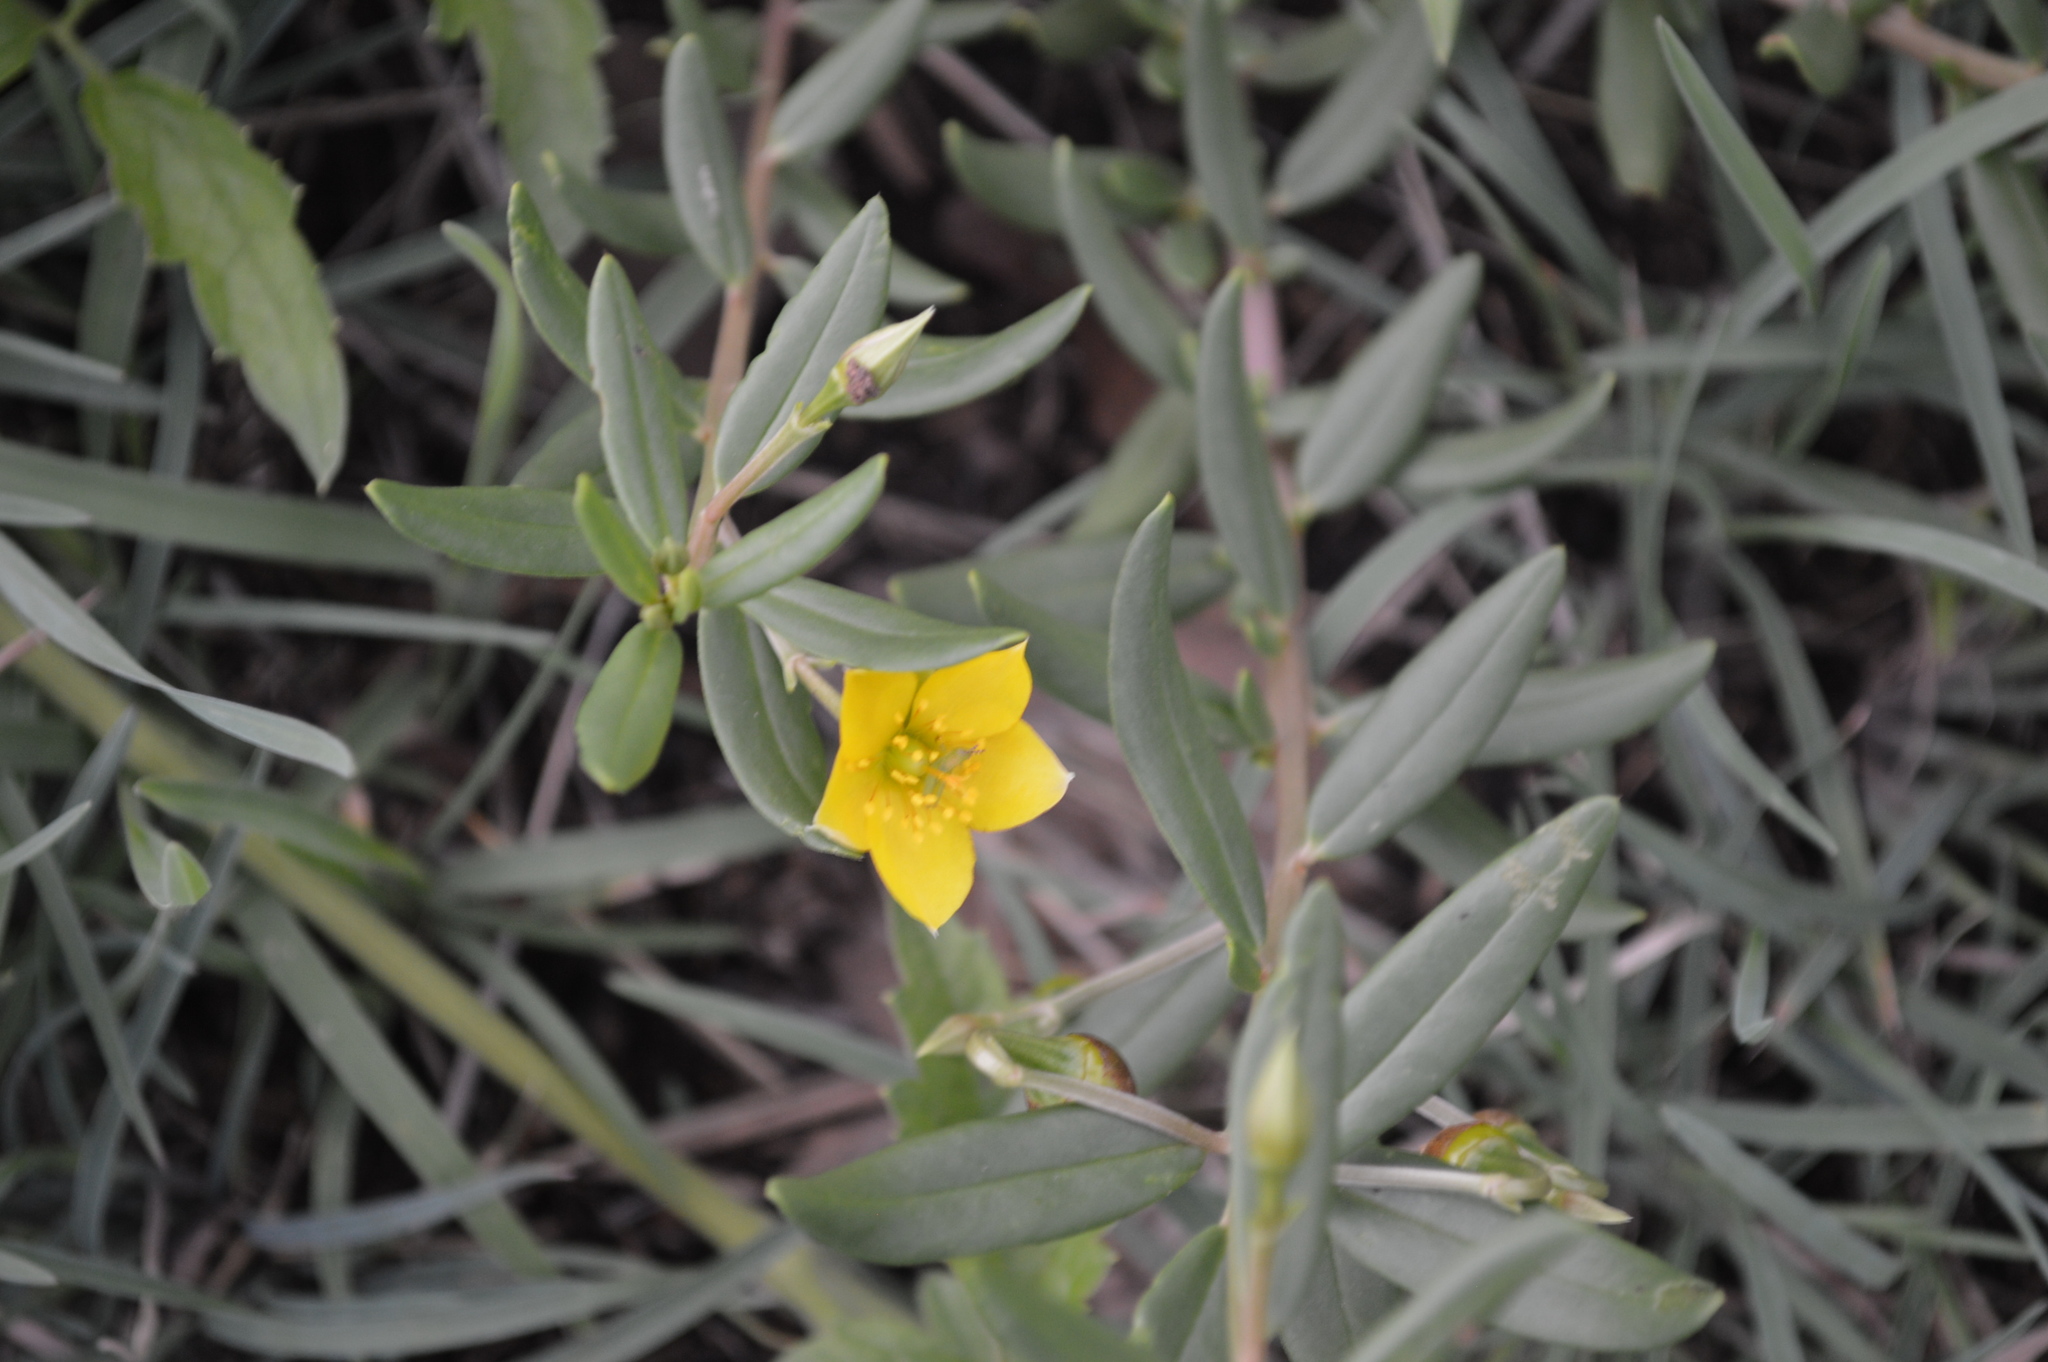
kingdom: Plantae
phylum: Tracheophyta
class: Magnoliopsida
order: Caryophyllales
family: Talinaceae
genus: Talinum
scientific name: Talinum caffrum
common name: Flameflower
